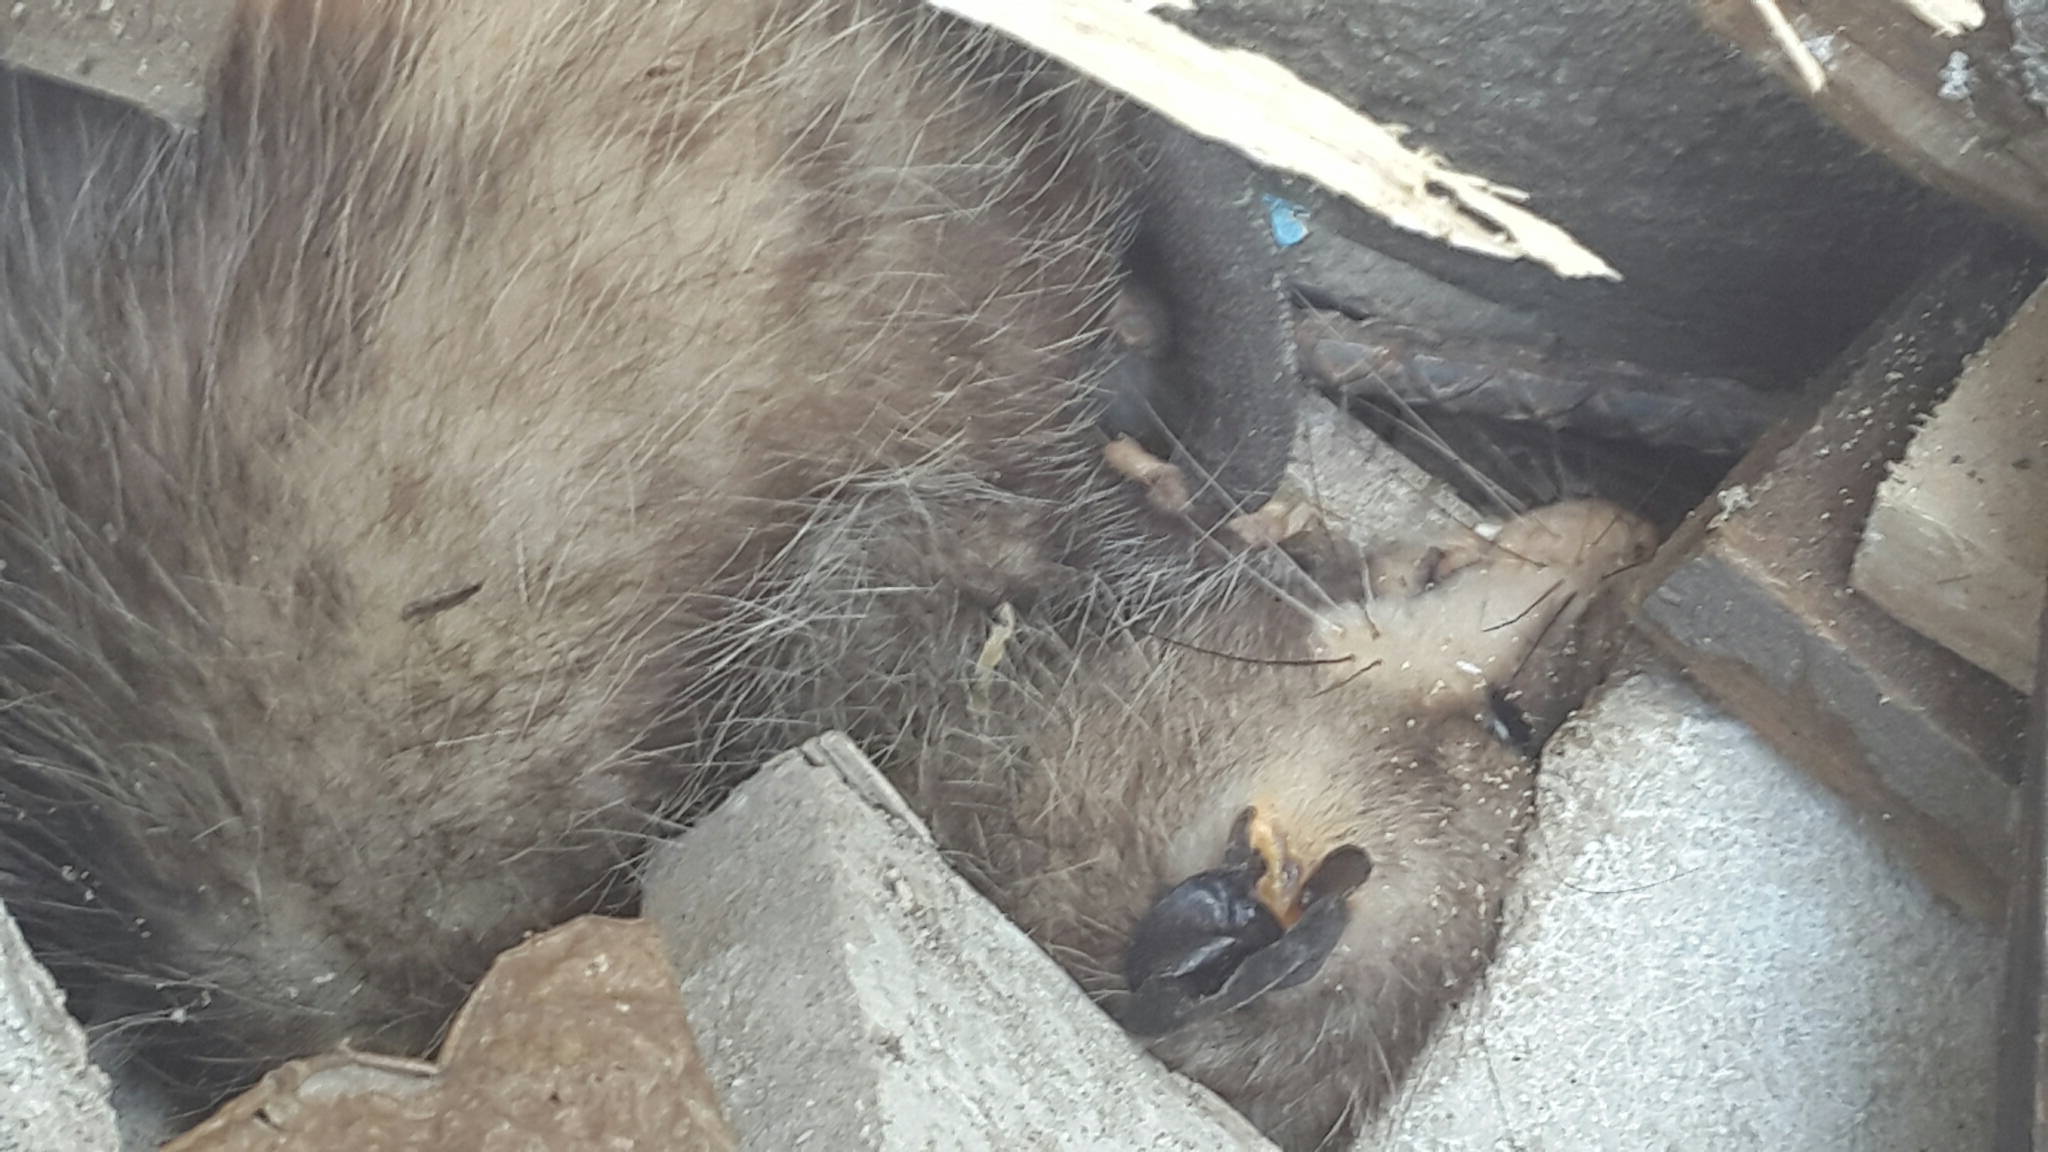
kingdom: Animalia
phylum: Chordata
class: Mammalia
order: Didelphimorphia
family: Didelphidae
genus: Didelphis
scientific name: Didelphis virginiana
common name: Virginia opossum
